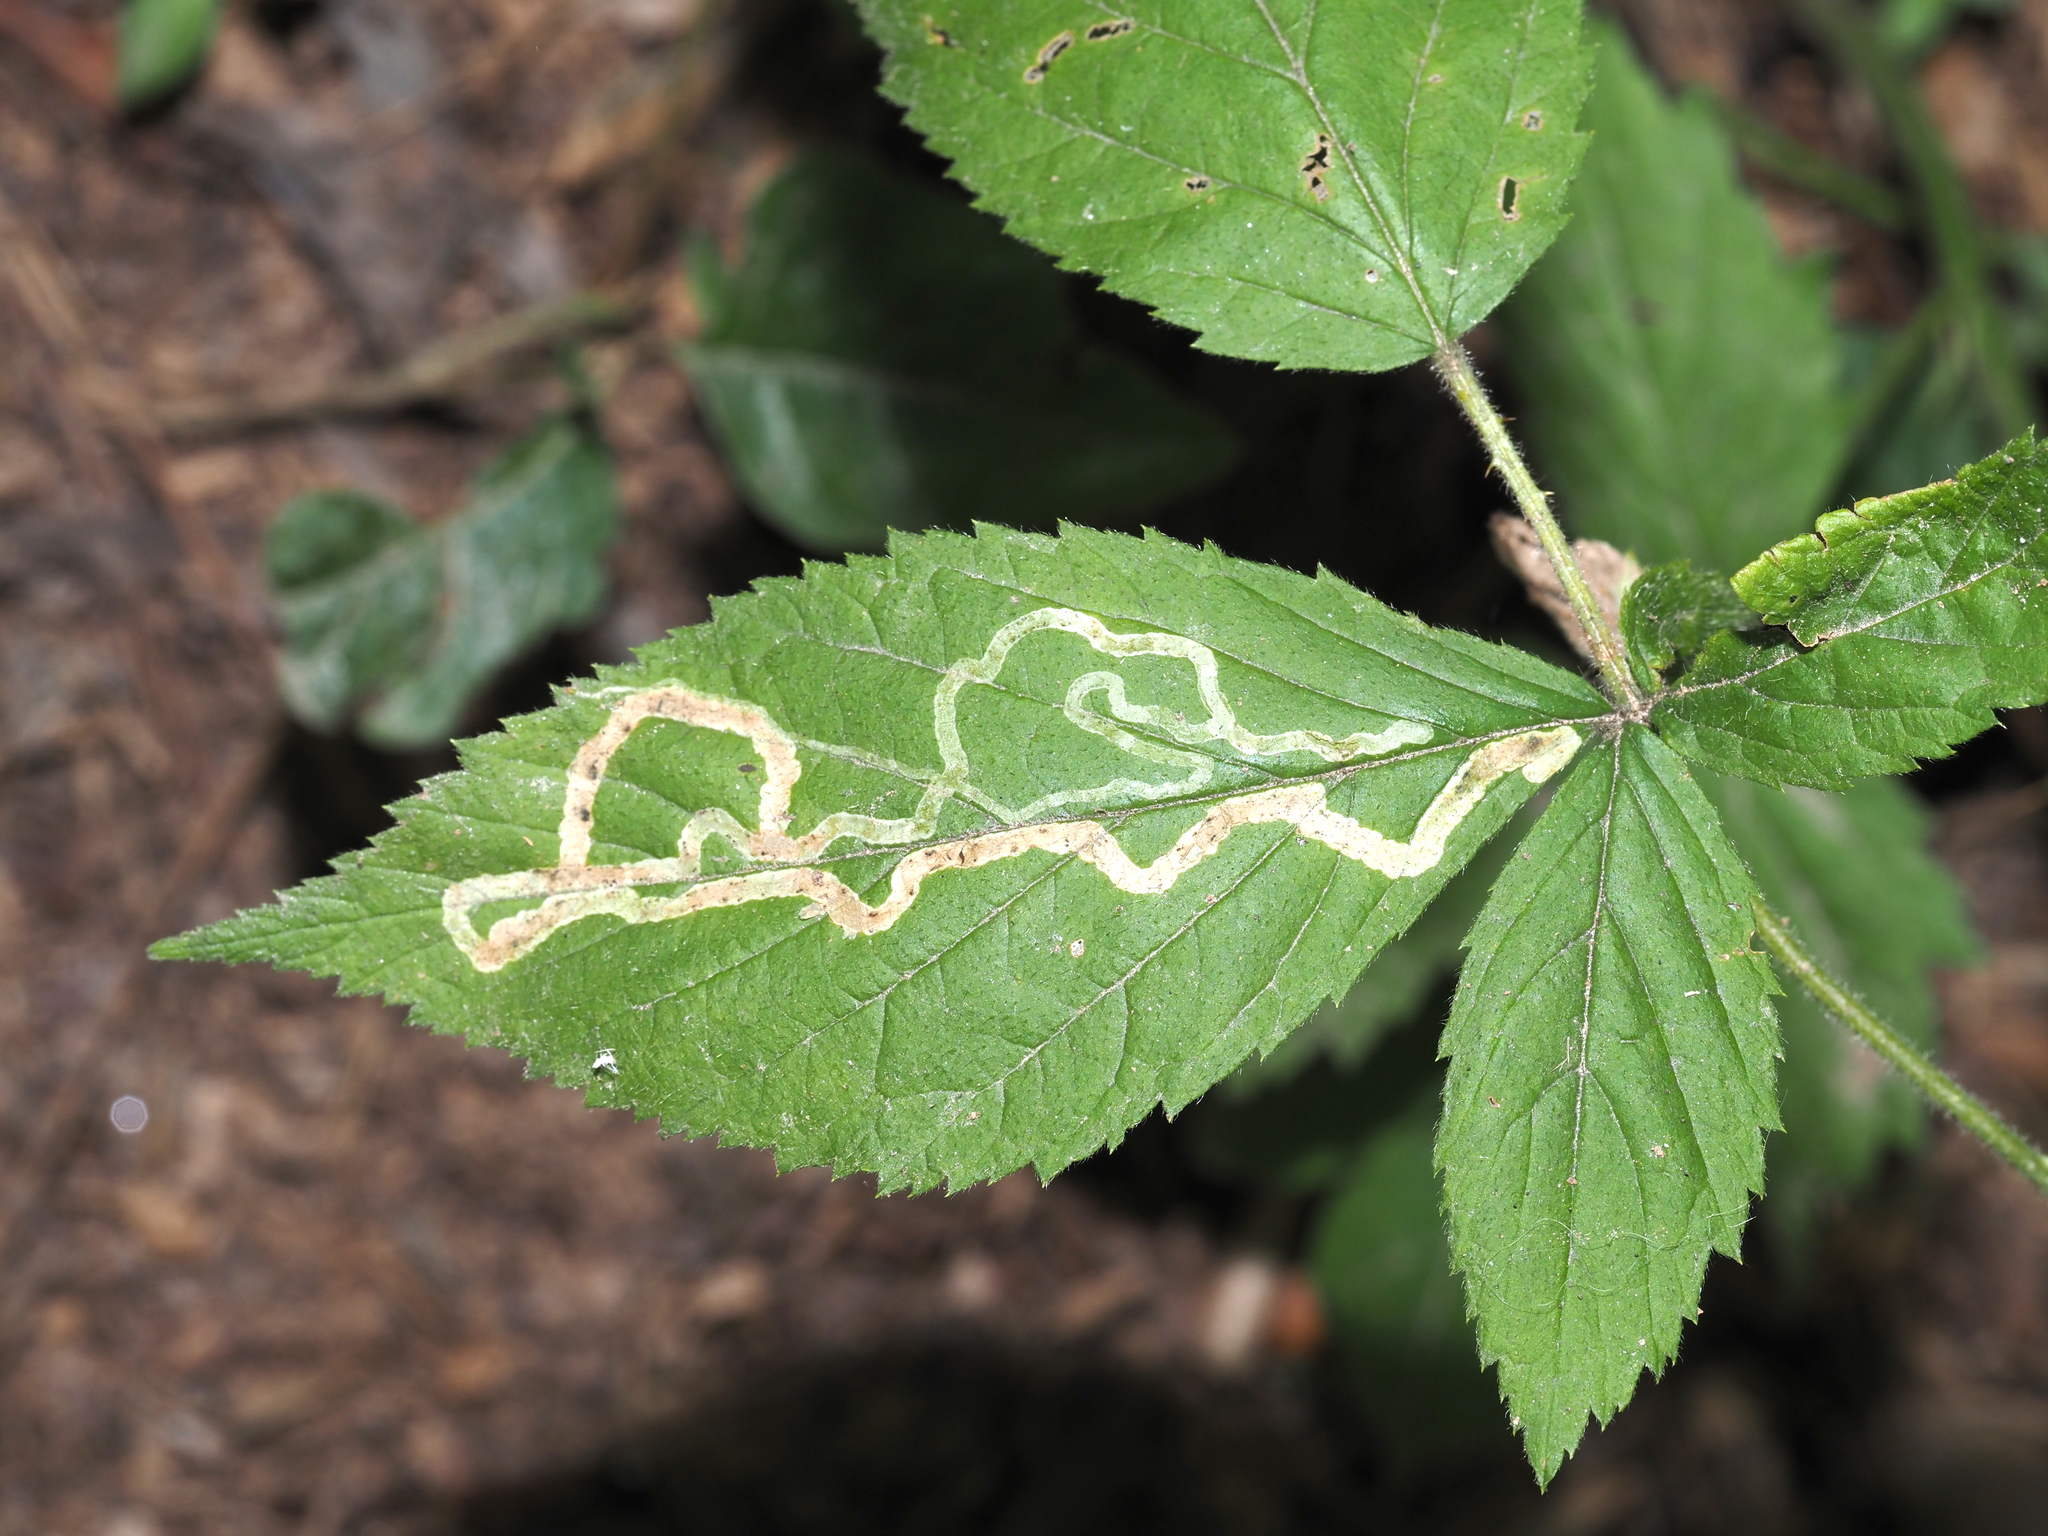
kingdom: Animalia
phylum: Arthropoda
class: Insecta
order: Diptera
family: Agromyzidae
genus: Agromyza
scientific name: Agromyza vockerothi
